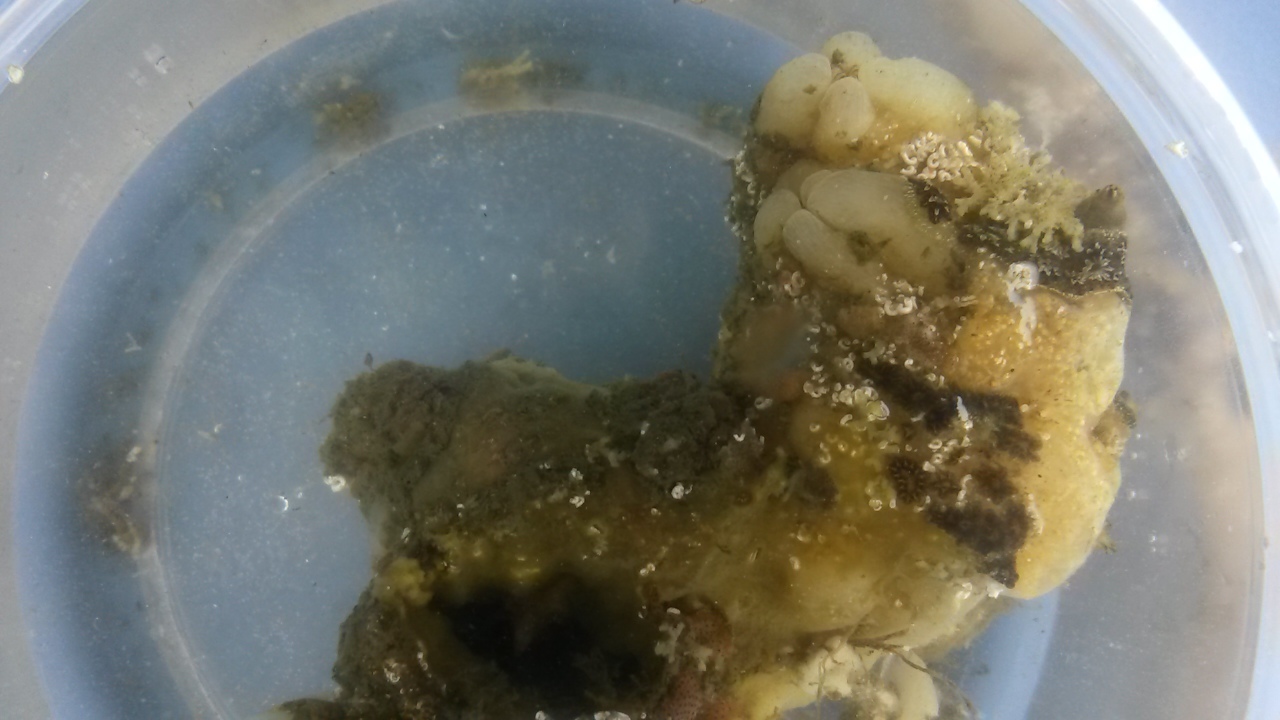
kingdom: Animalia
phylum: Chordata
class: Ascidiacea
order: Stolidobranchia
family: Styelidae
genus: Styela
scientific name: Styela plicata
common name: Pleated tunicate
